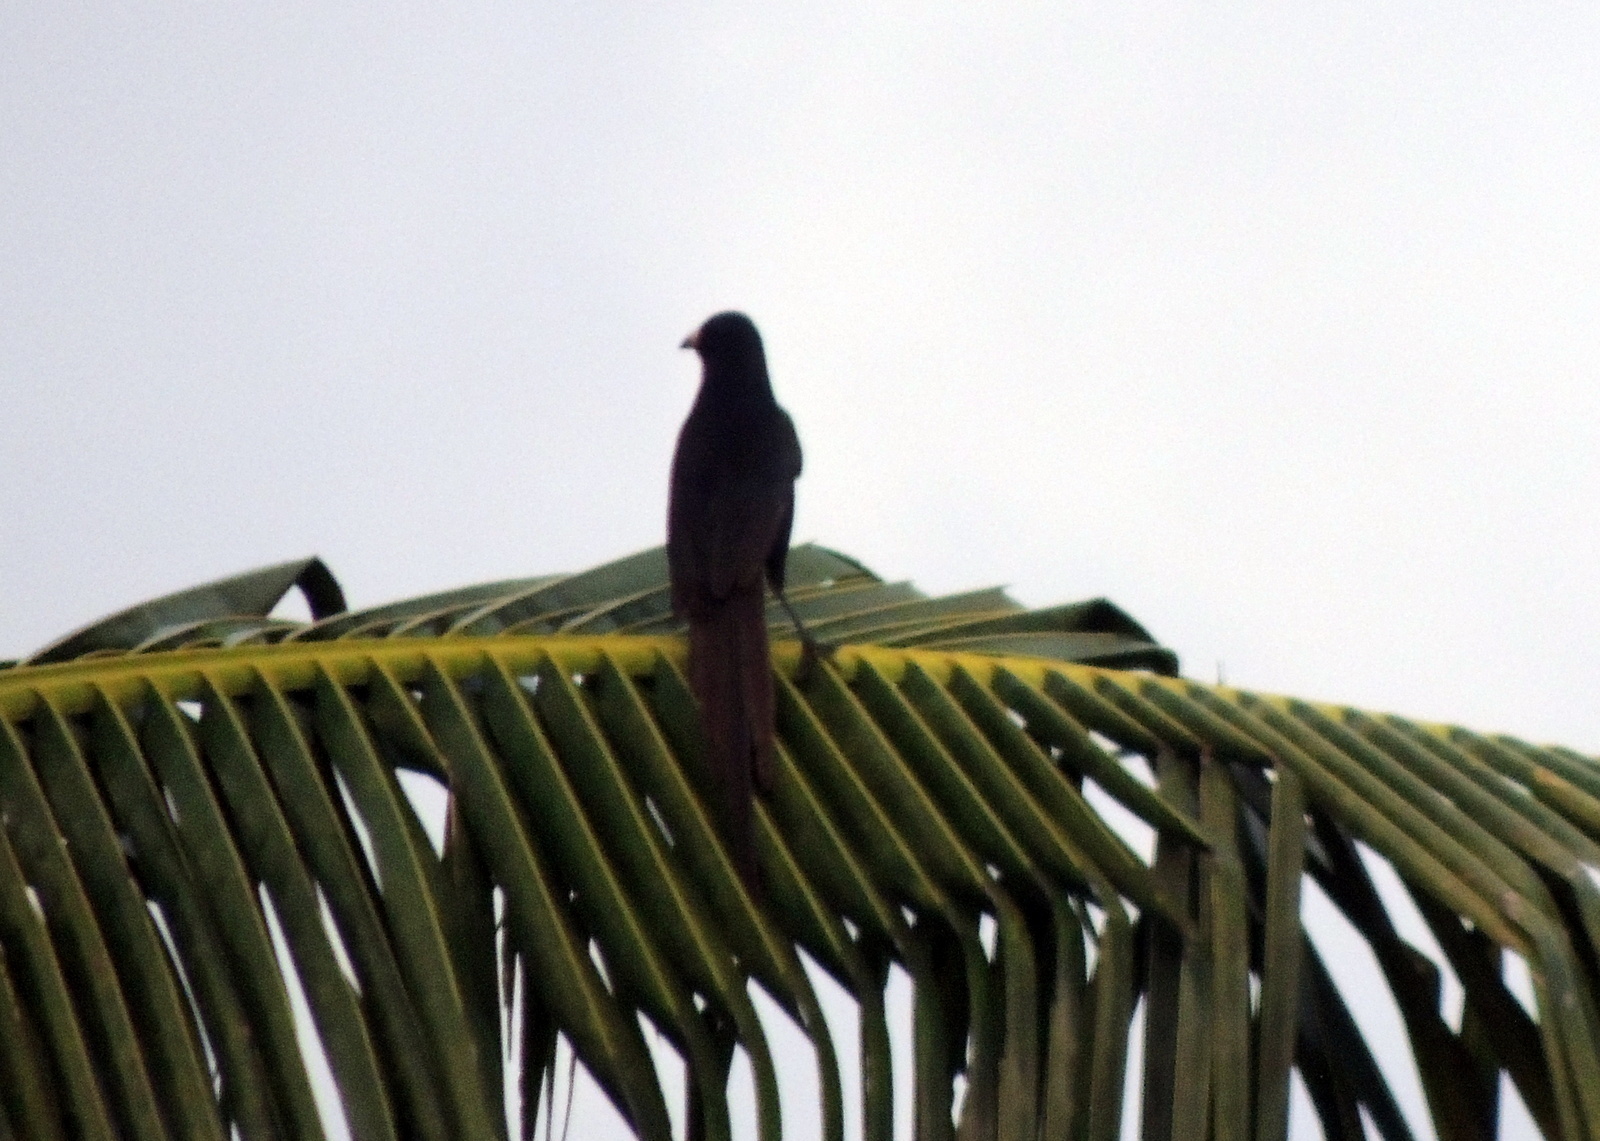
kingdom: Animalia
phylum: Chordata
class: Aves
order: Passeriformes
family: Corvidae
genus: Ptilostomus
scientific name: Ptilostomus afer
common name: Piapiac
